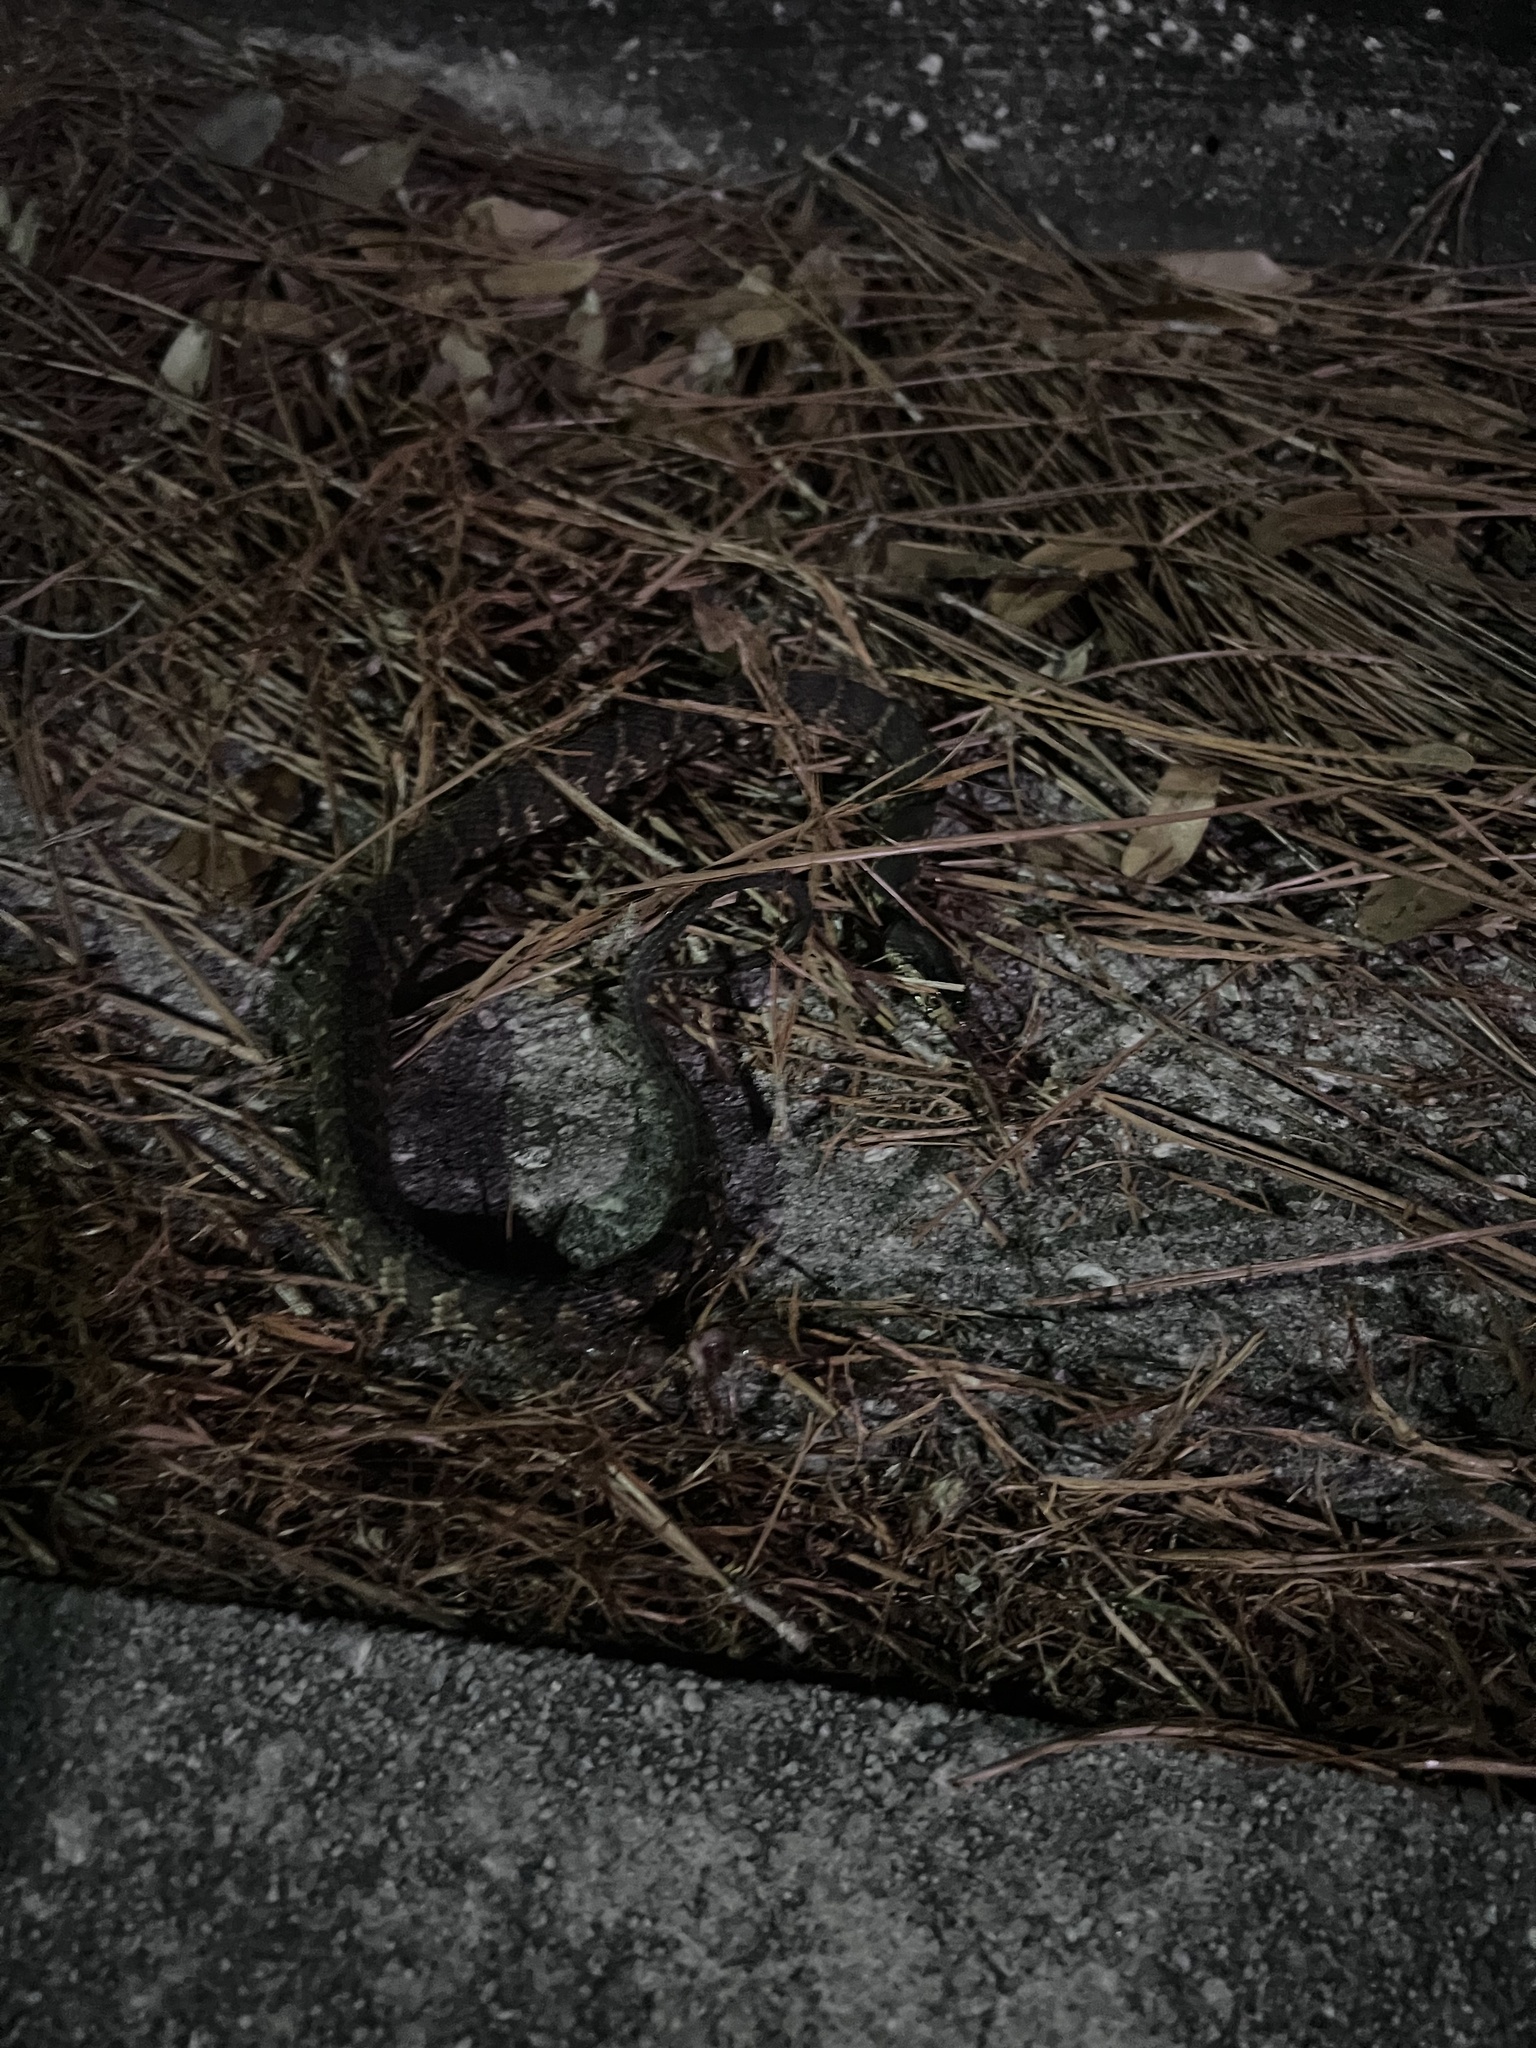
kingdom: Animalia
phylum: Chordata
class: Squamata
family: Colubridae
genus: Nerodia
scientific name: Nerodia fasciata
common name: Southern water snake
